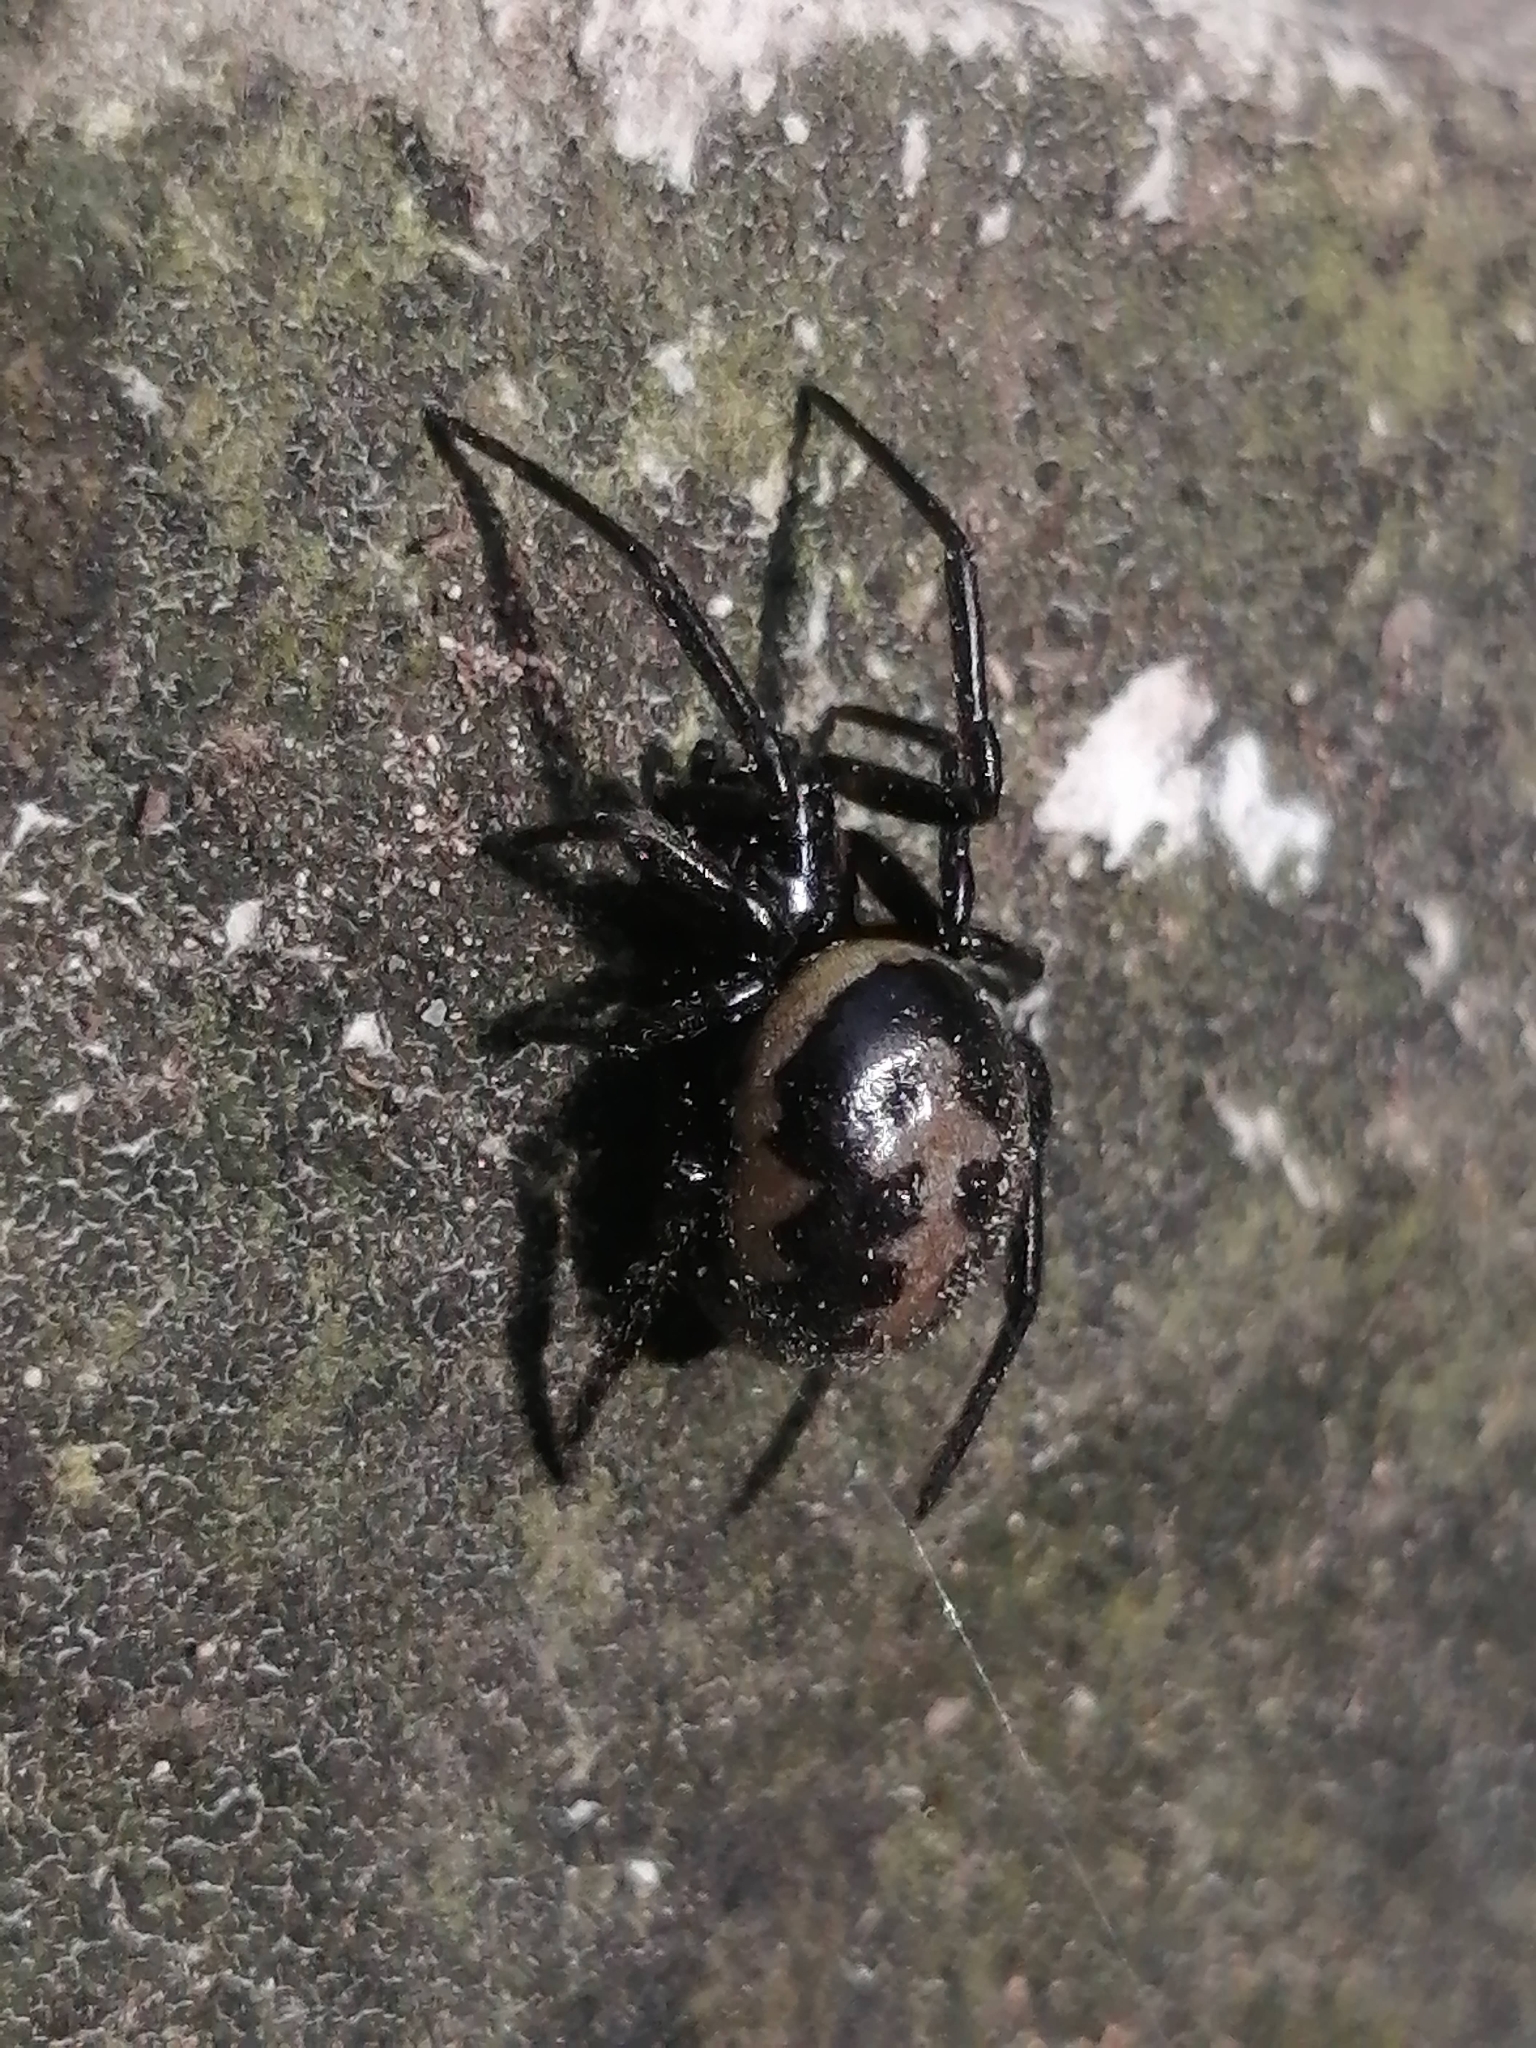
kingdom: Animalia
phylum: Arthropoda
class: Arachnida
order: Araneae
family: Theridiidae
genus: Steatoda
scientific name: Steatoda paykulliana
